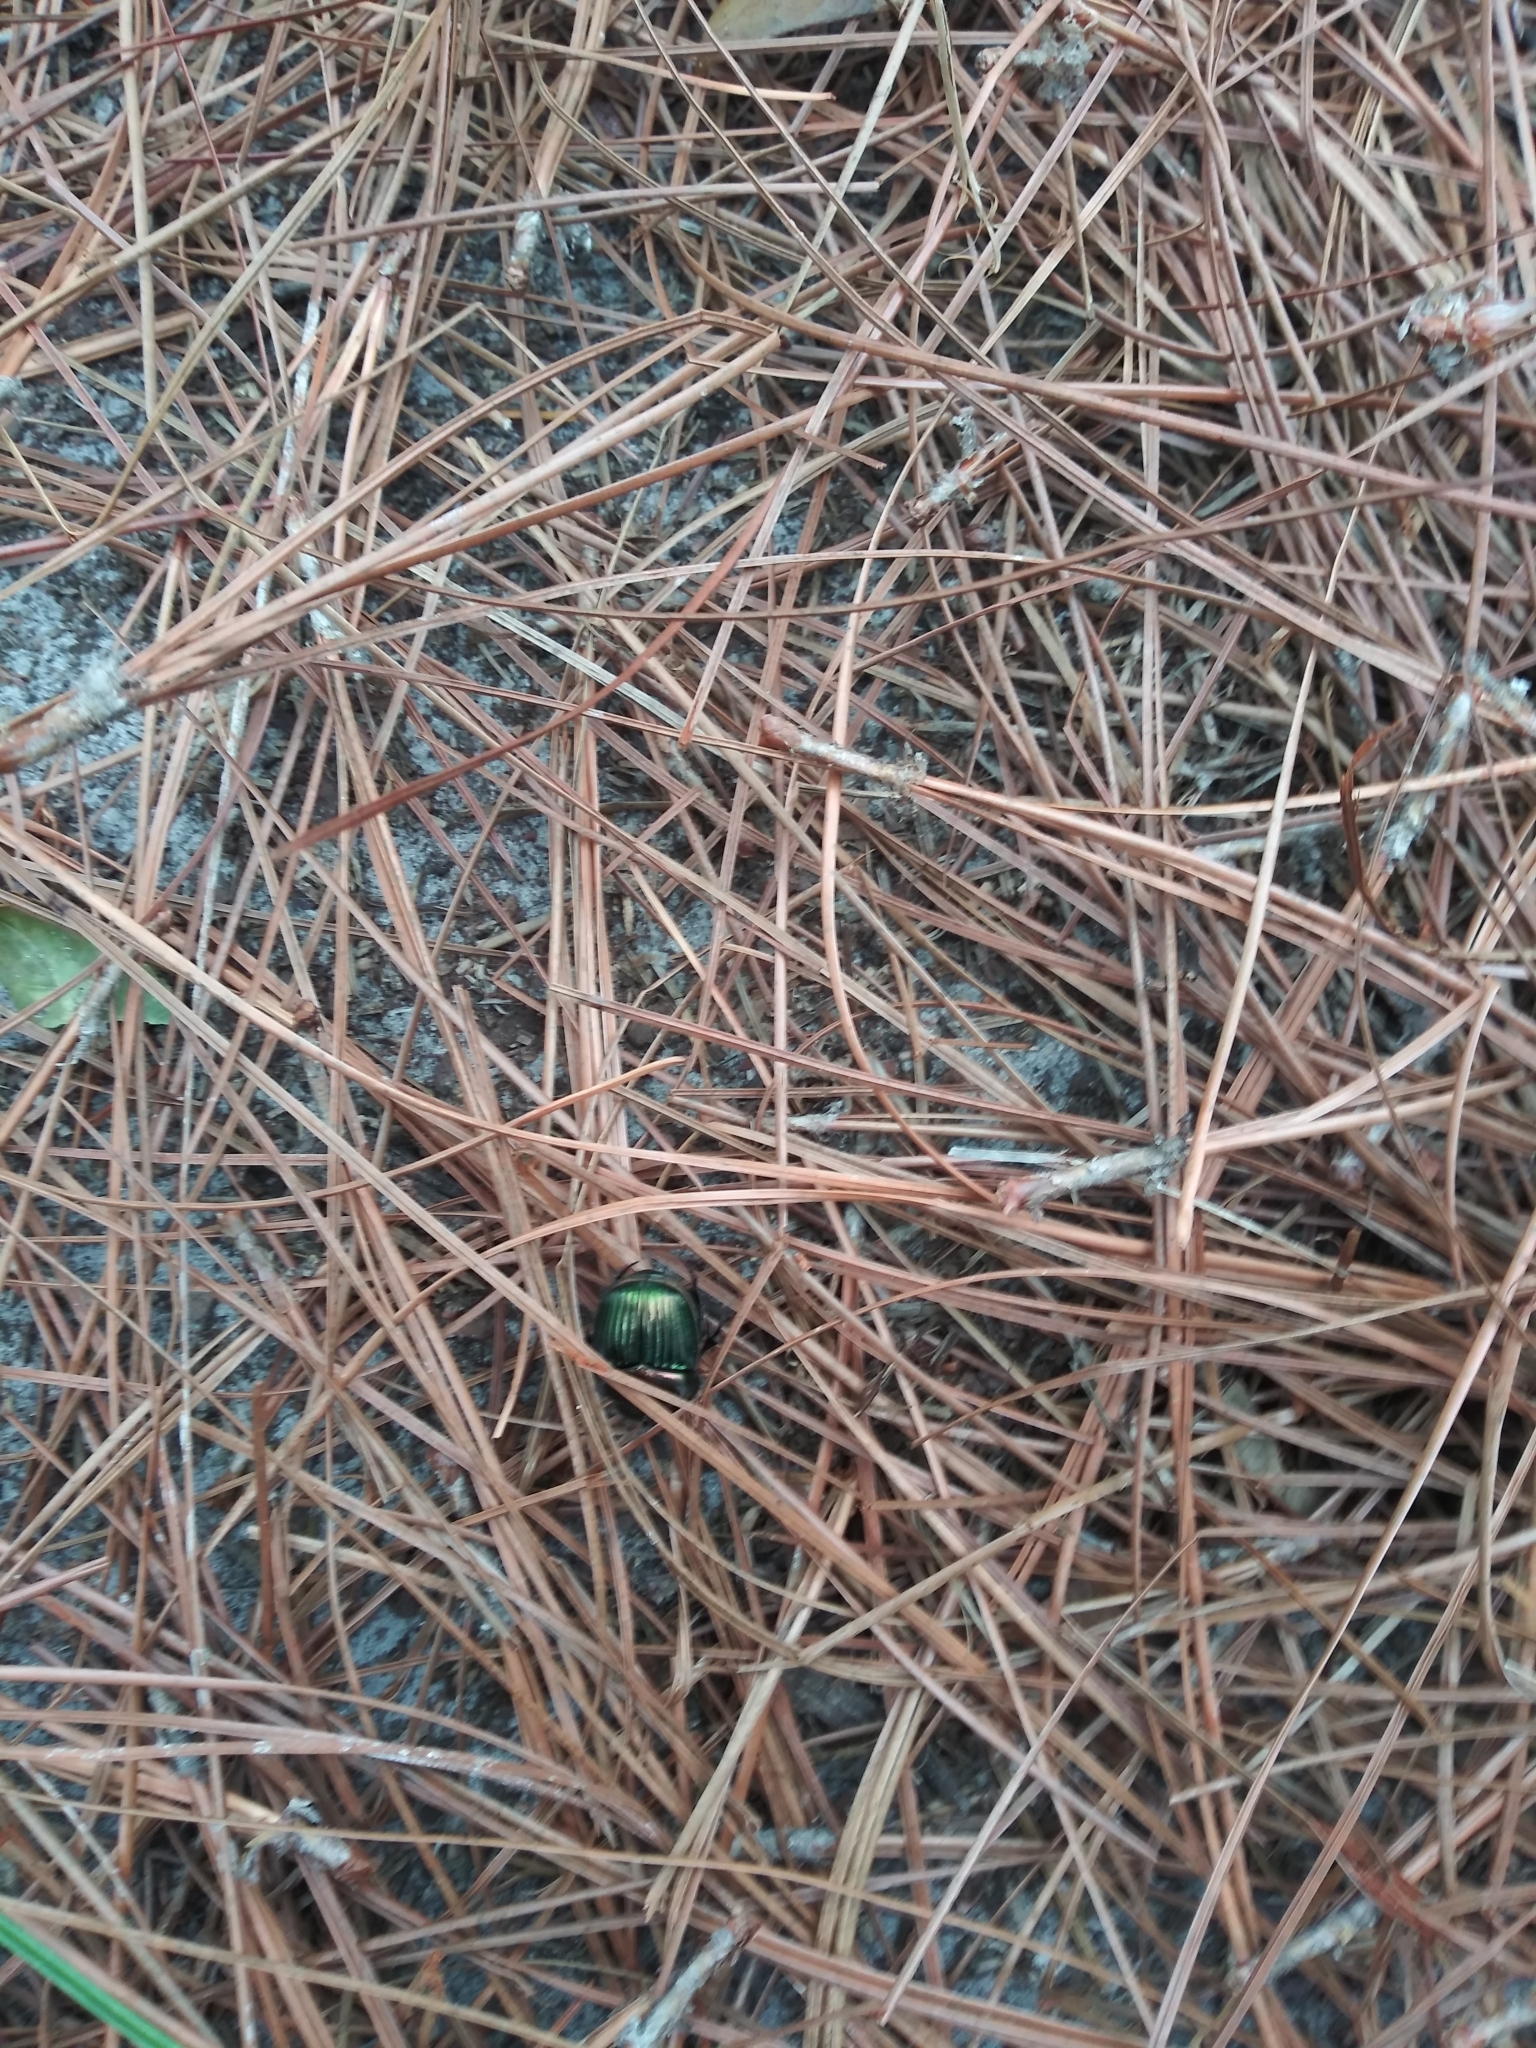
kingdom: Animalia
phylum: Arthropoda
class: Insecta
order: Coleoptera
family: Scarabaeidae
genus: Phanaeus
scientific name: Phanaeus igneus
